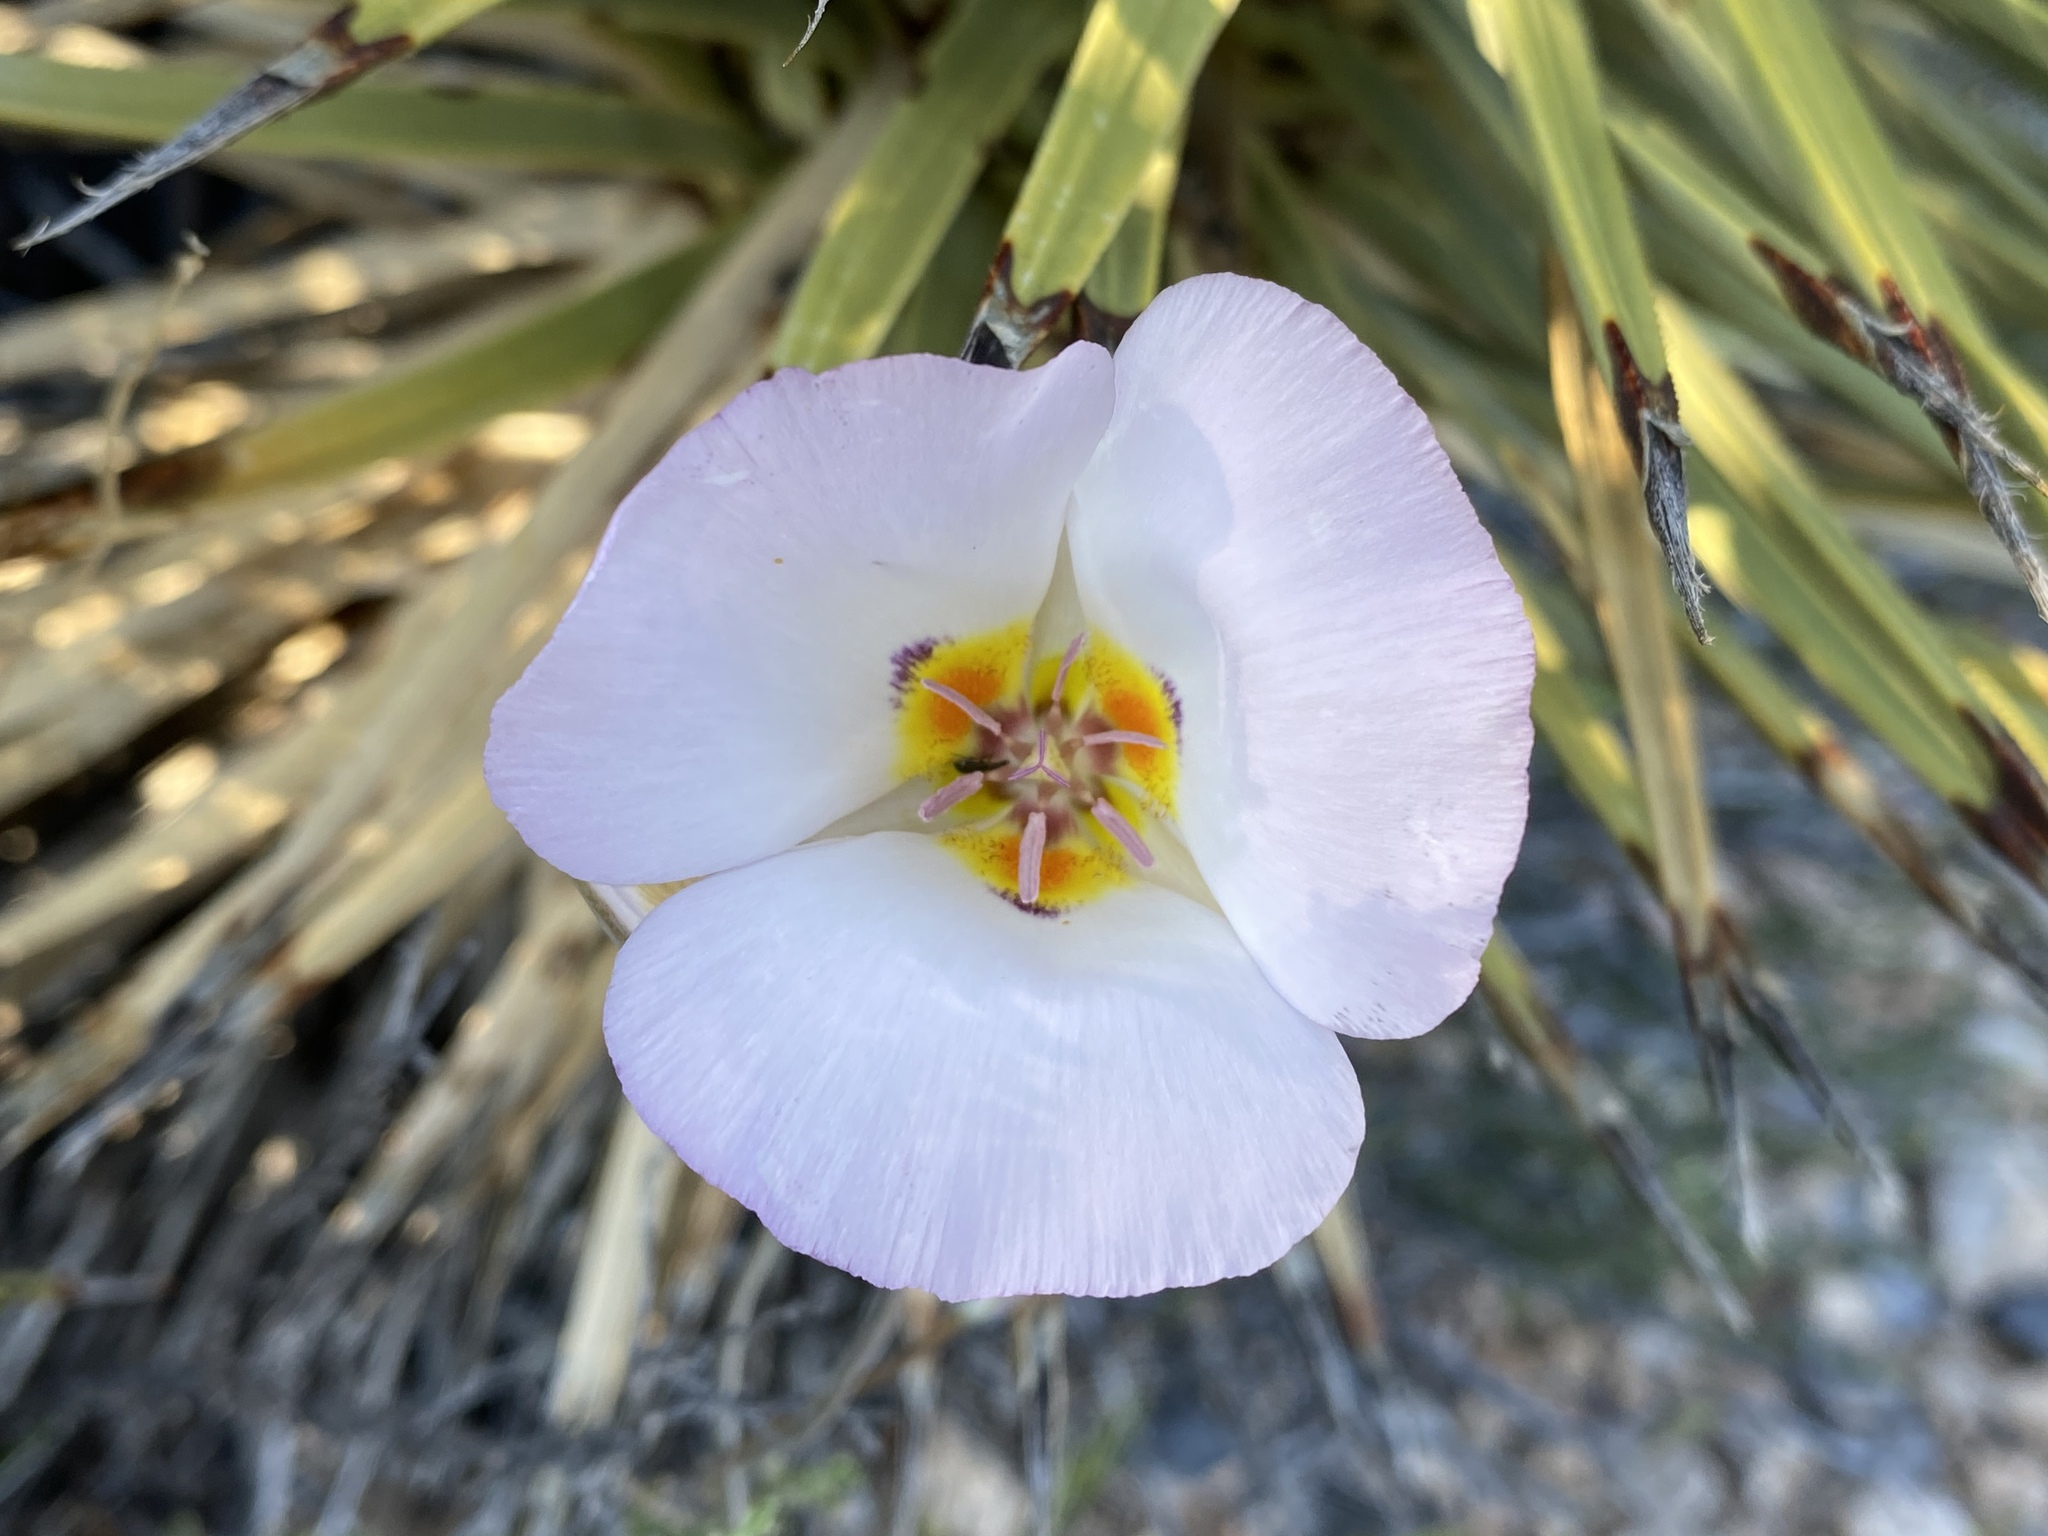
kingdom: Plantae
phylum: Tracheophyta
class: Liliopsida
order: Liliales
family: Liliaceae
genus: Calochortus
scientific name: Calochortus flexuosus
